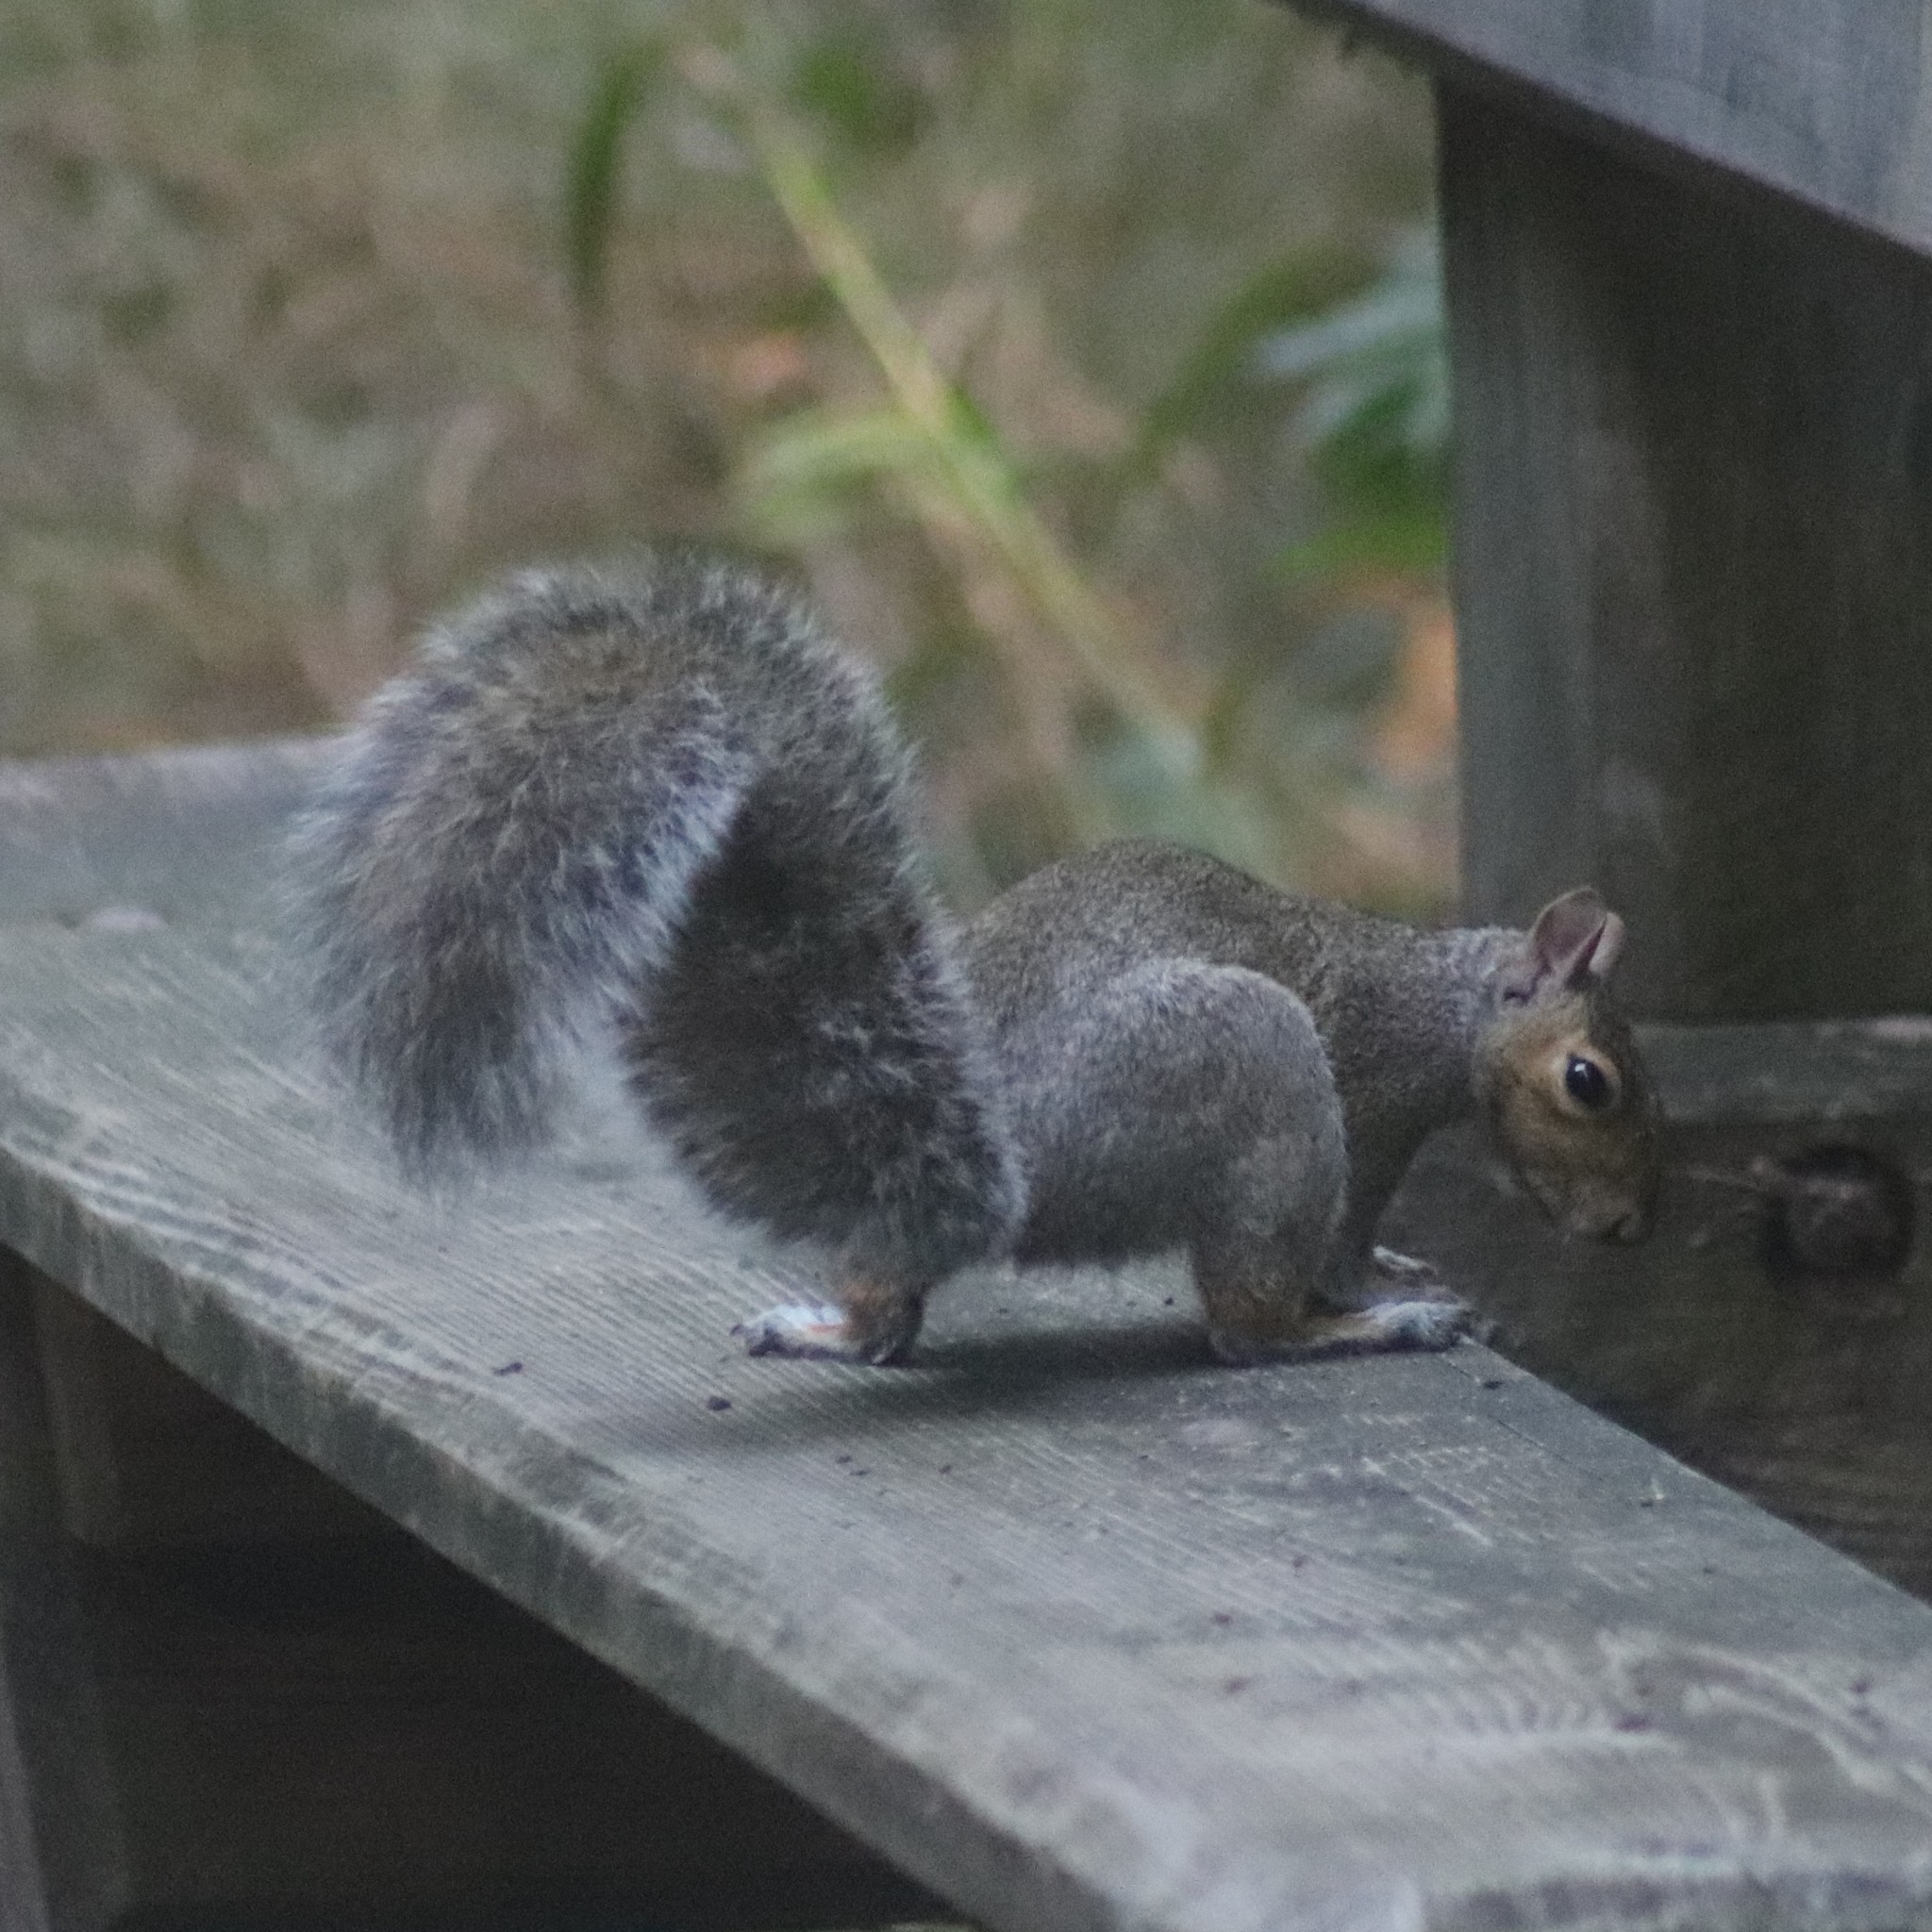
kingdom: Animalia
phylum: Chordata
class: Mammalia
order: Rodentia
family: Sciuridae
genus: Sciurus
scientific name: Sciurus carolinensis
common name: Eastern gray squirrel
